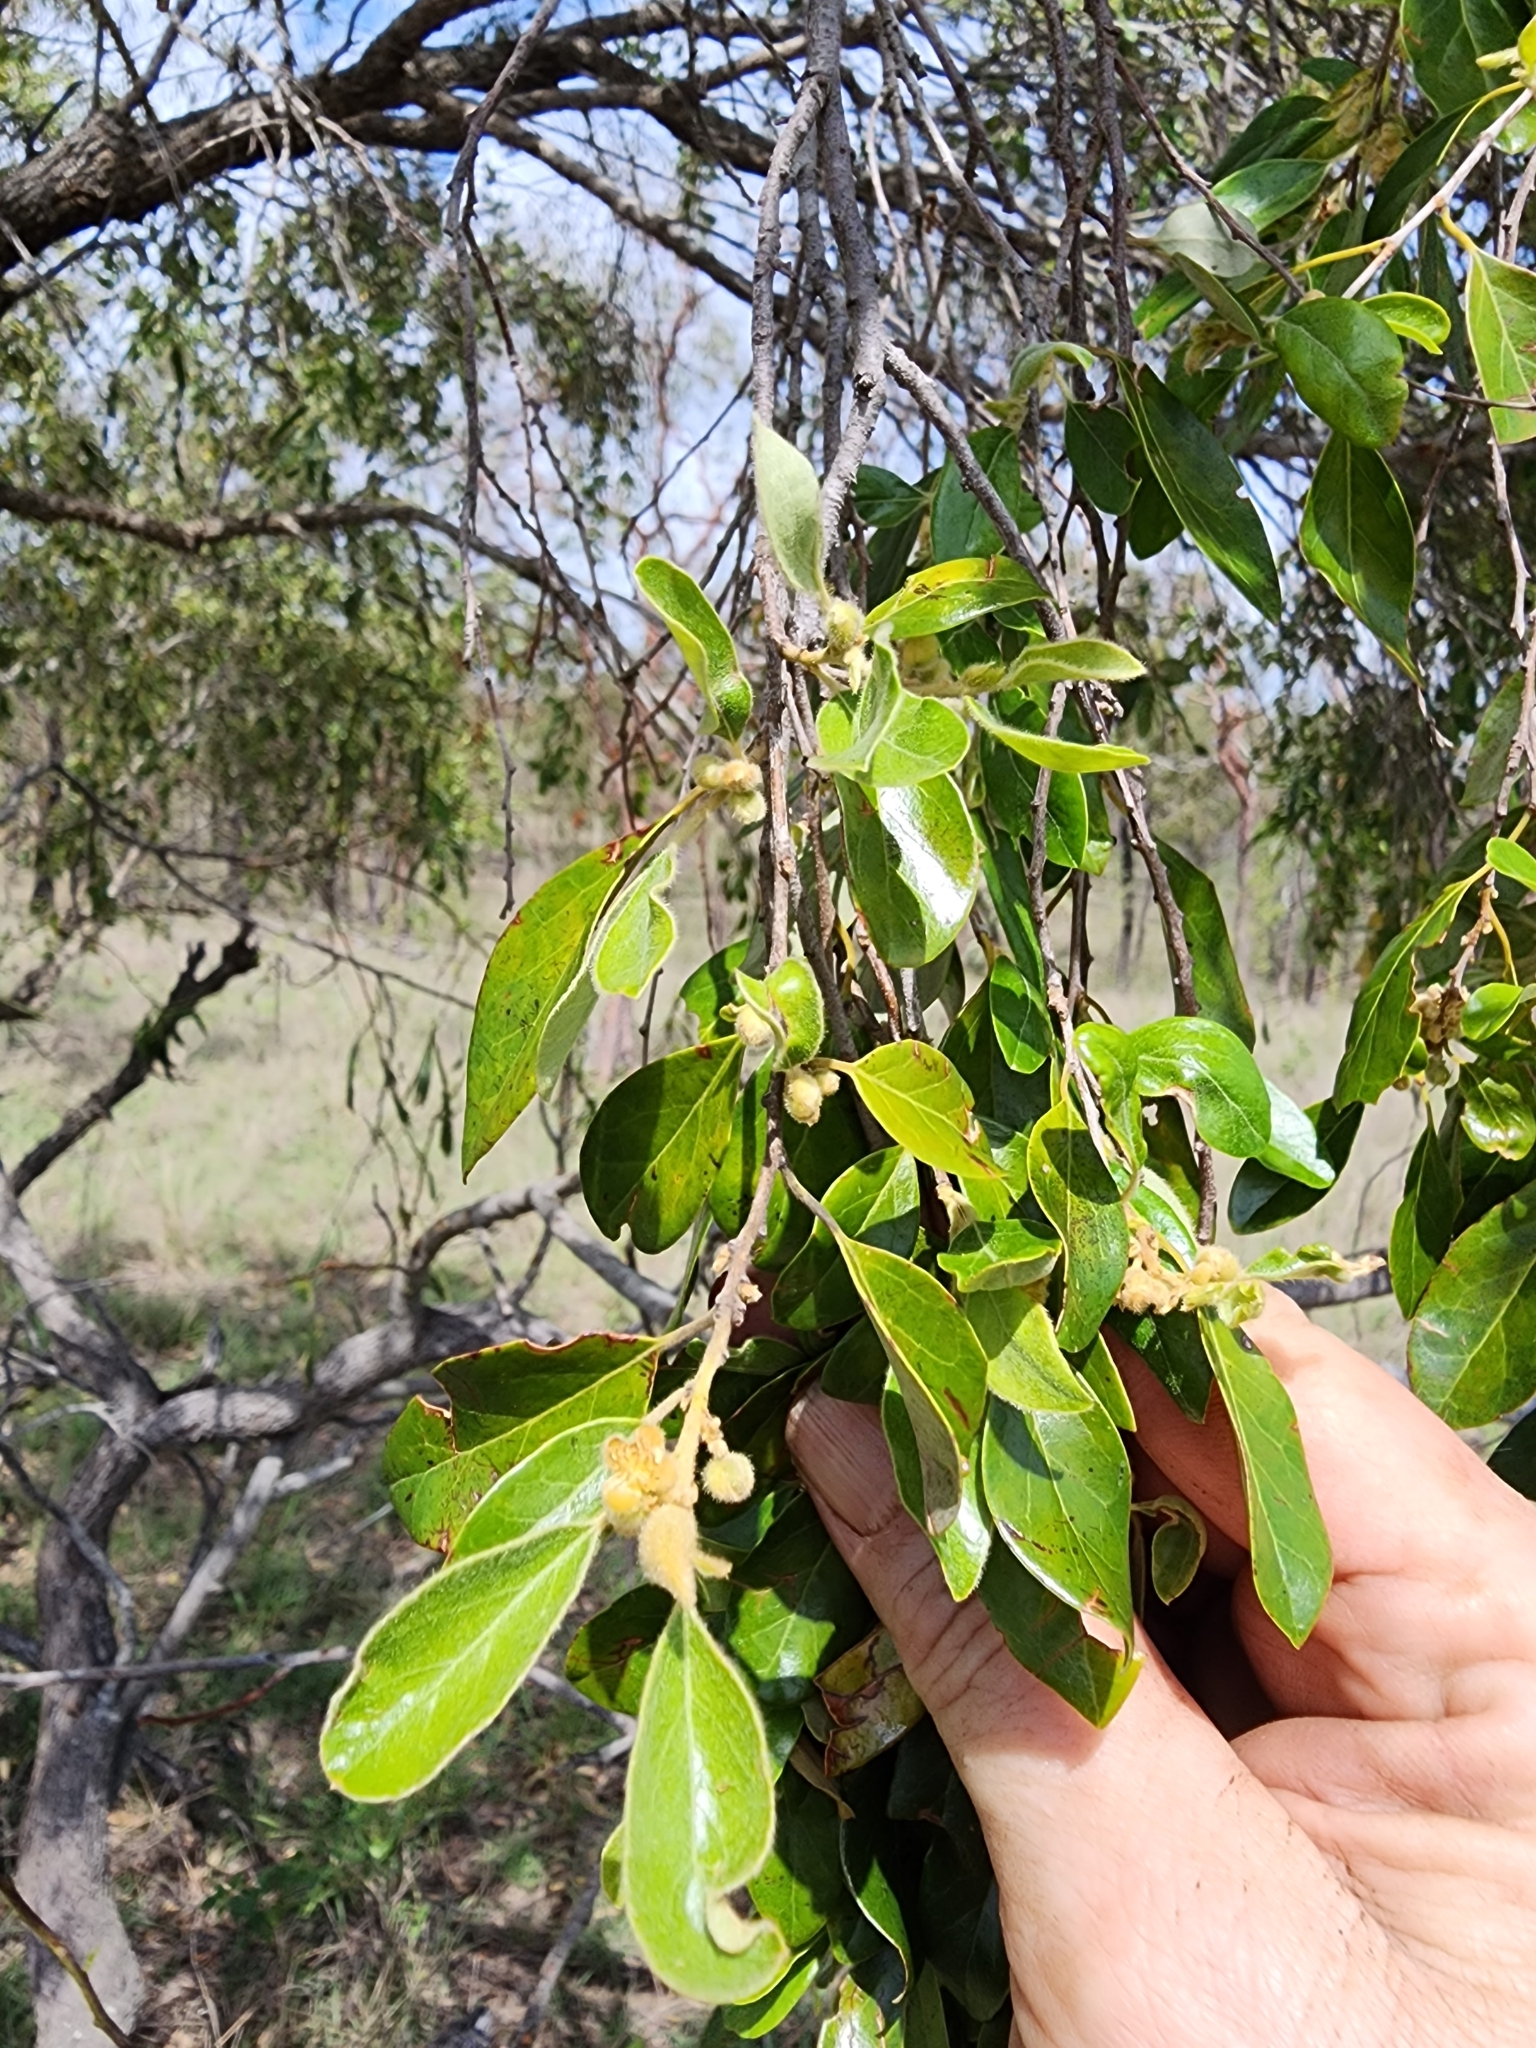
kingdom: Plantae
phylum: Tracheophyta
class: Magnoliopsida
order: Malpighiales
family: Picrodendraceae
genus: Petalostigma
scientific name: Petalostigma pubescens
